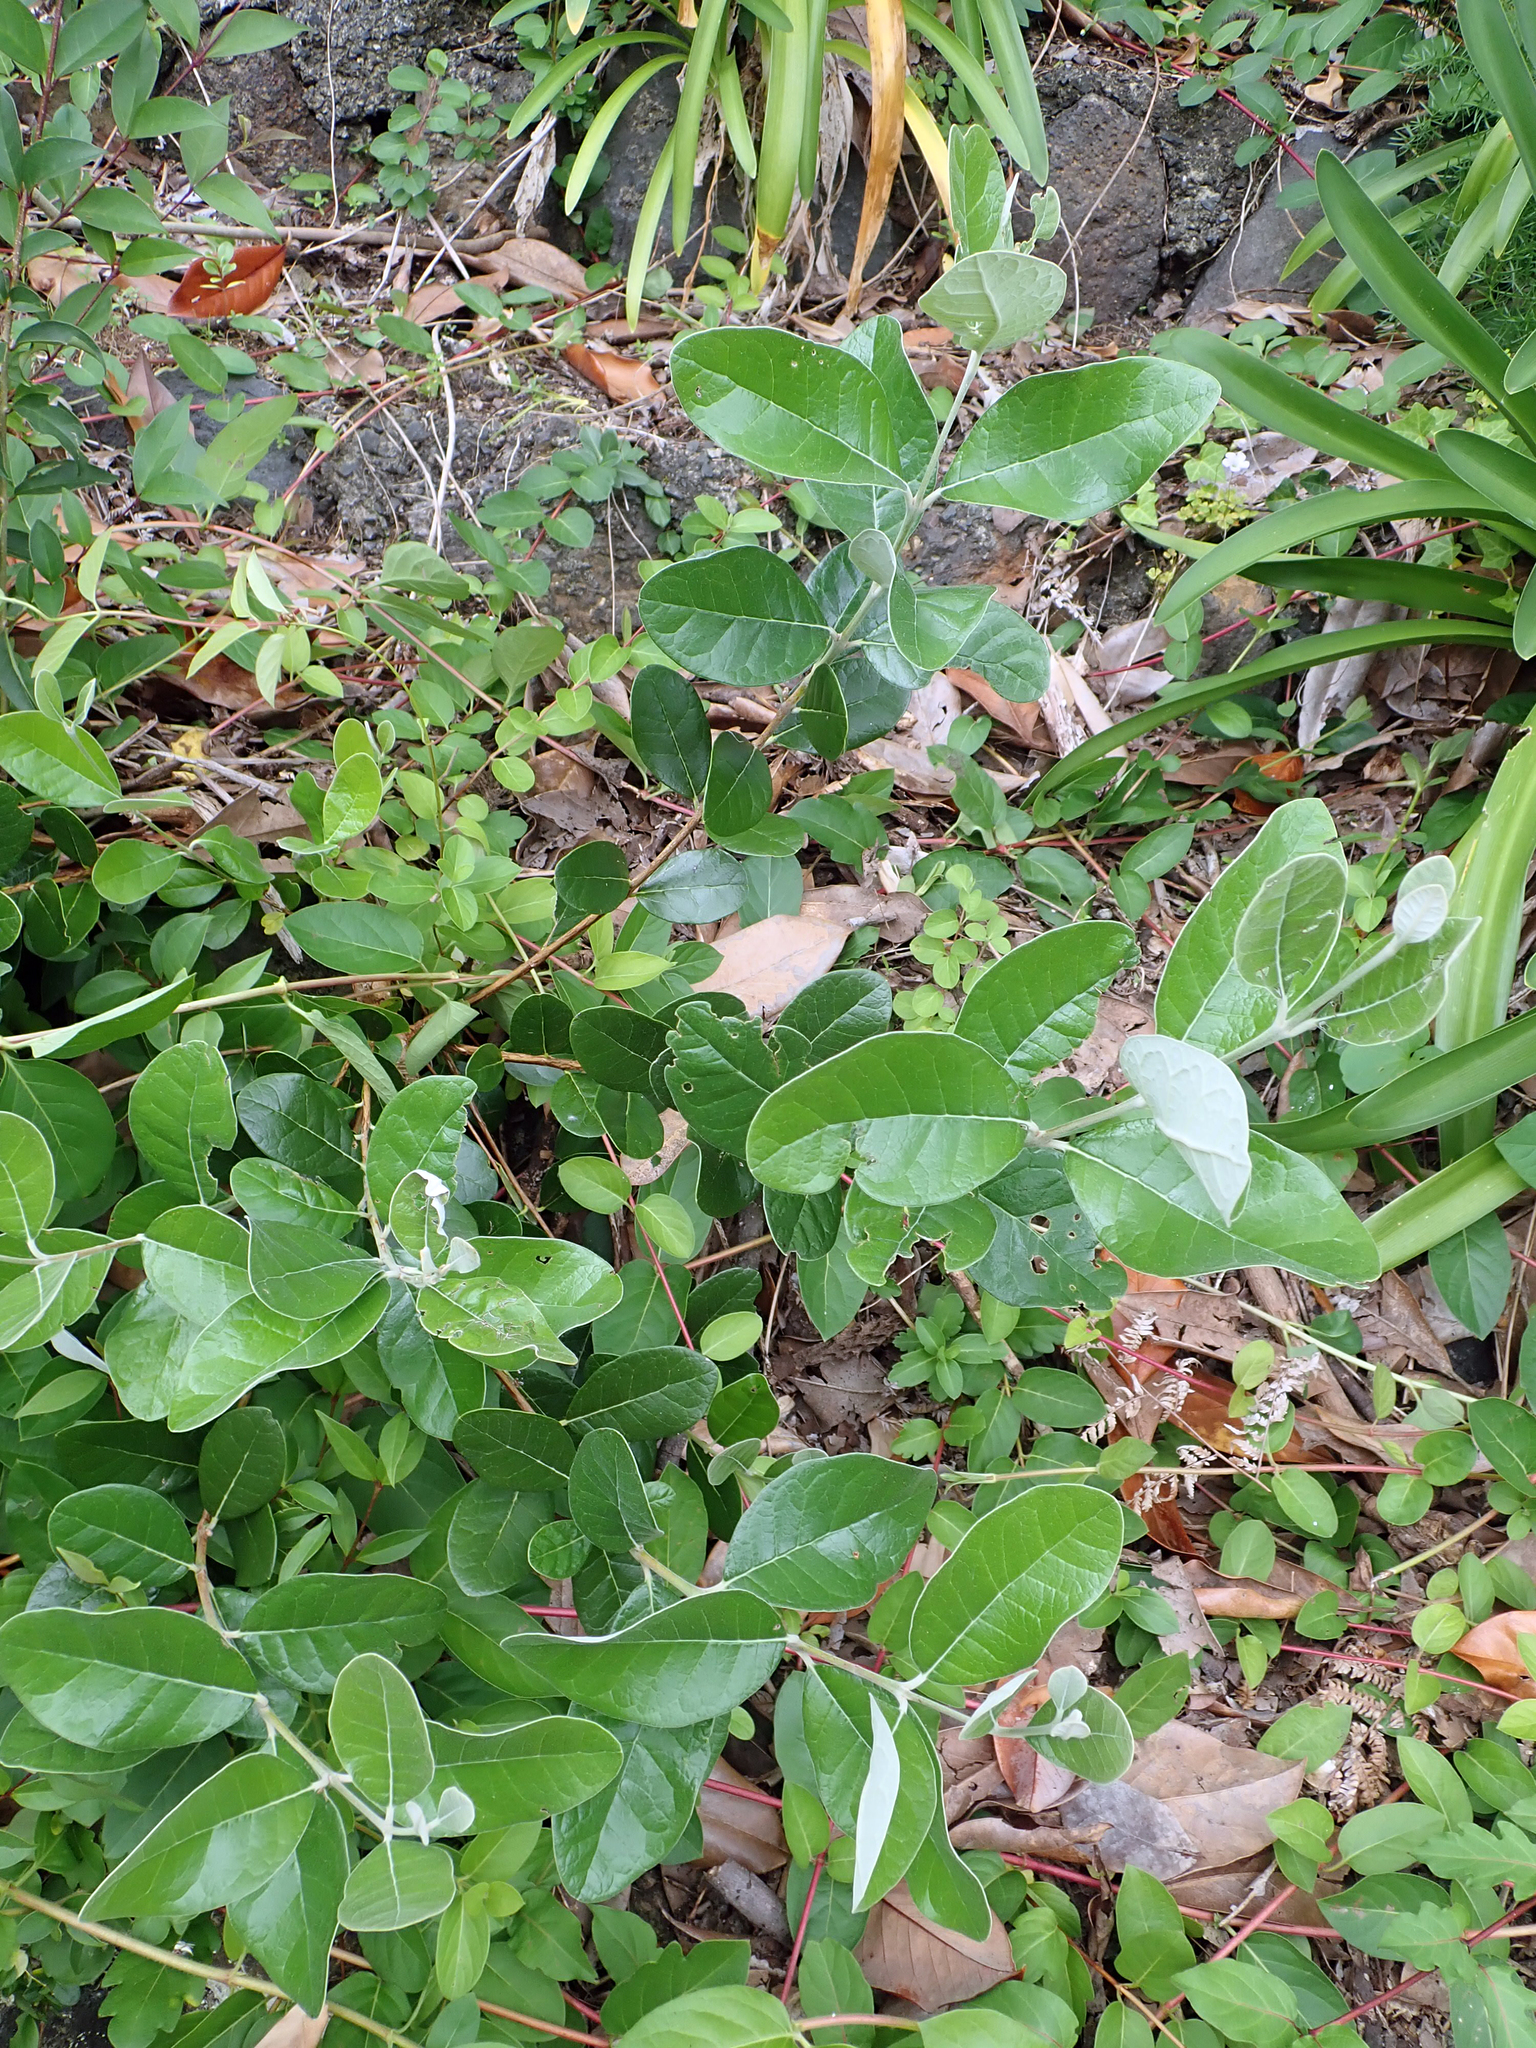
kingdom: Plantae
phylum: Tracheophyta
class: Magnoliopsida
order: Myrtales
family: Myrtaceae
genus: Feijoa
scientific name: Feijoa sellowiana
